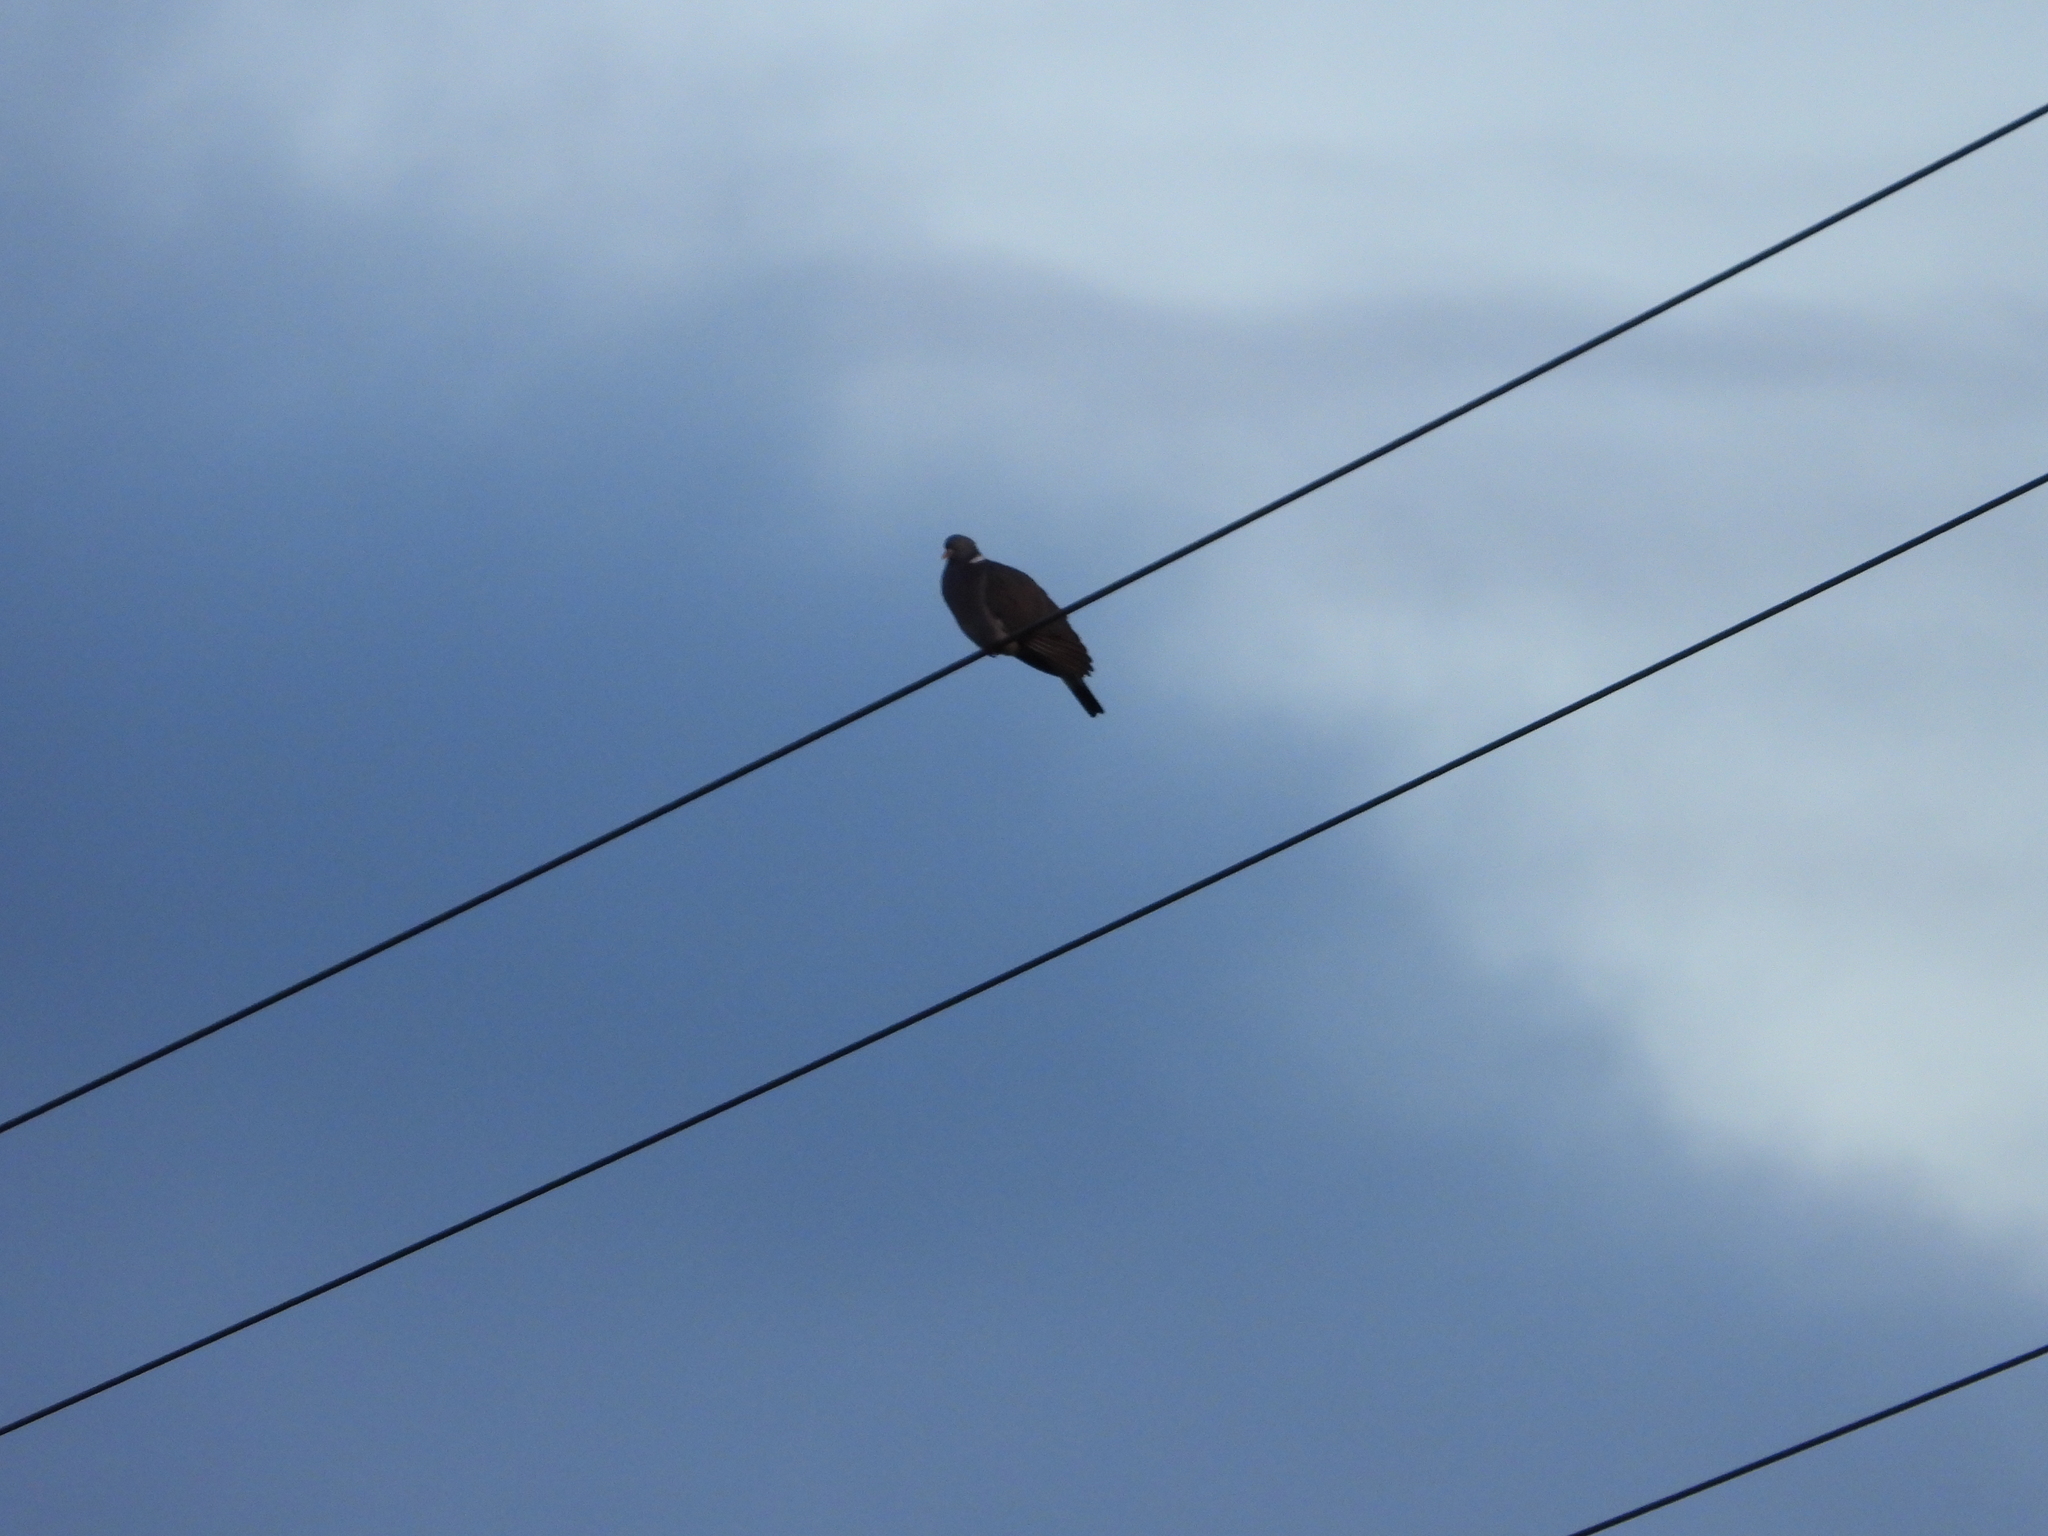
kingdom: Animalia
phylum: Chordata
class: Aves
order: Columbiformes
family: Columbidae
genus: Columba
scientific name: Columba palumbus
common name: Common wood pigeon
